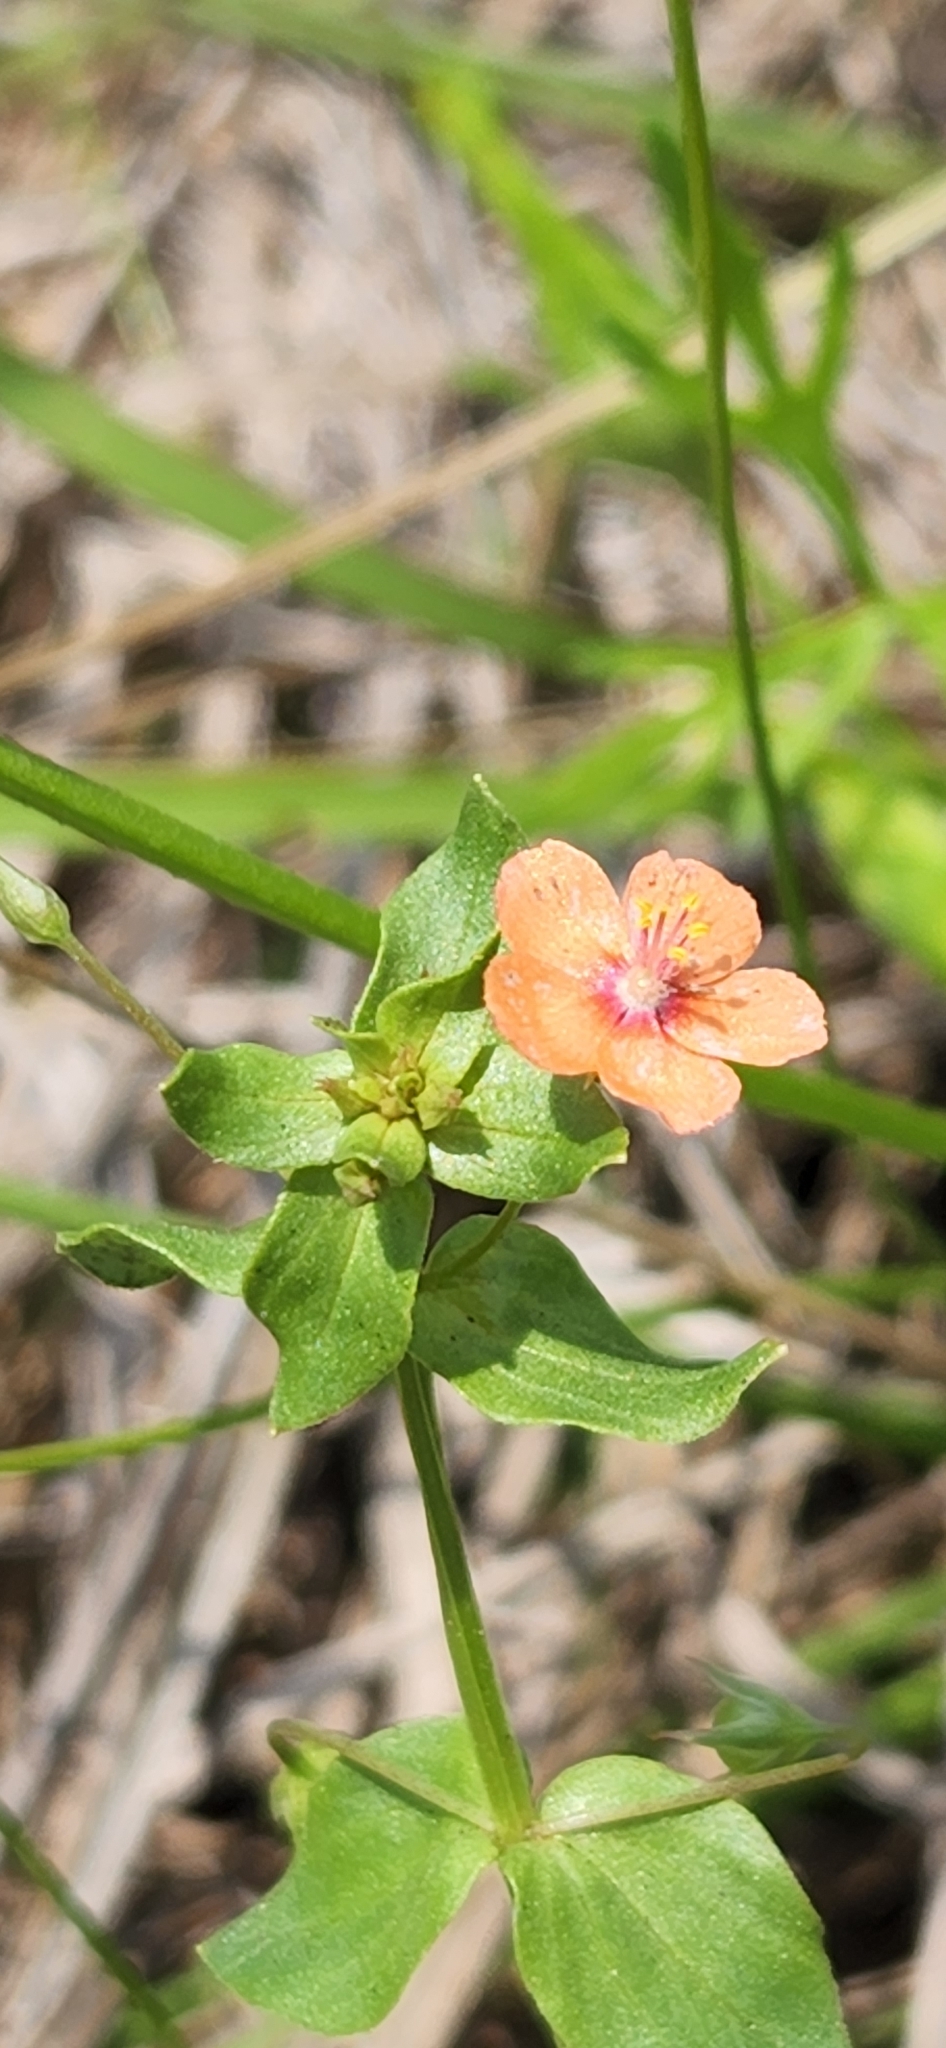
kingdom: Plantae
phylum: Tracheophyta
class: Magnoliopsida
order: Ericales
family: Primulaceae
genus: Lysimachia
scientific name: Lysimachia arvensis
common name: Scarlet pimpernel
